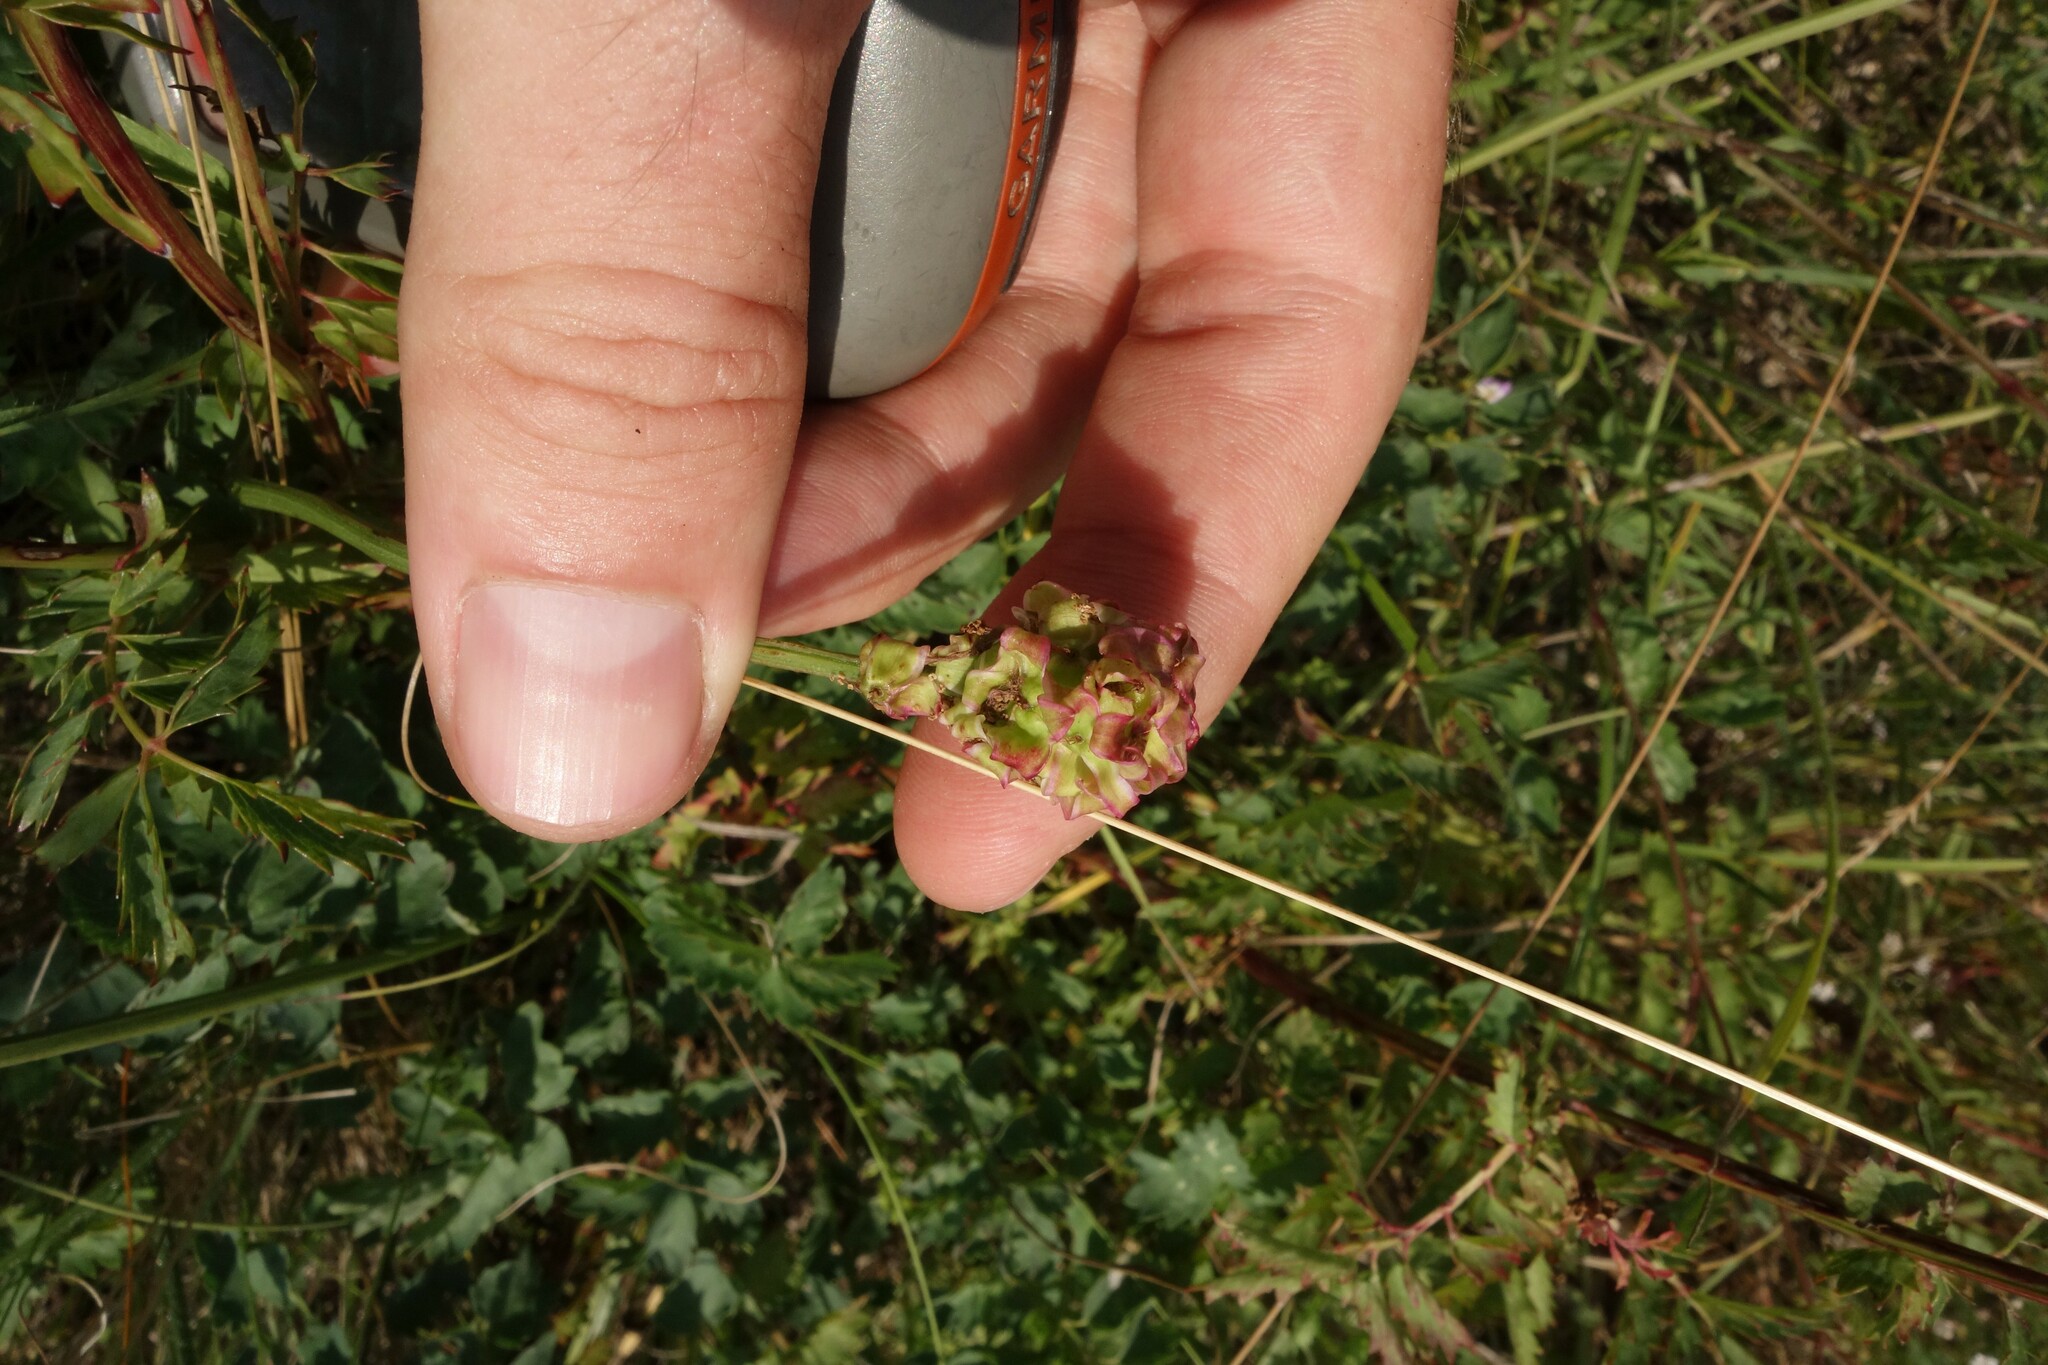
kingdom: Plantae
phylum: Tracheophyta
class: Magnoliopsida
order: Rosales
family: Rosaceae
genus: Poterium
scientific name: Poterium sanguisorba
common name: Salad burnet
